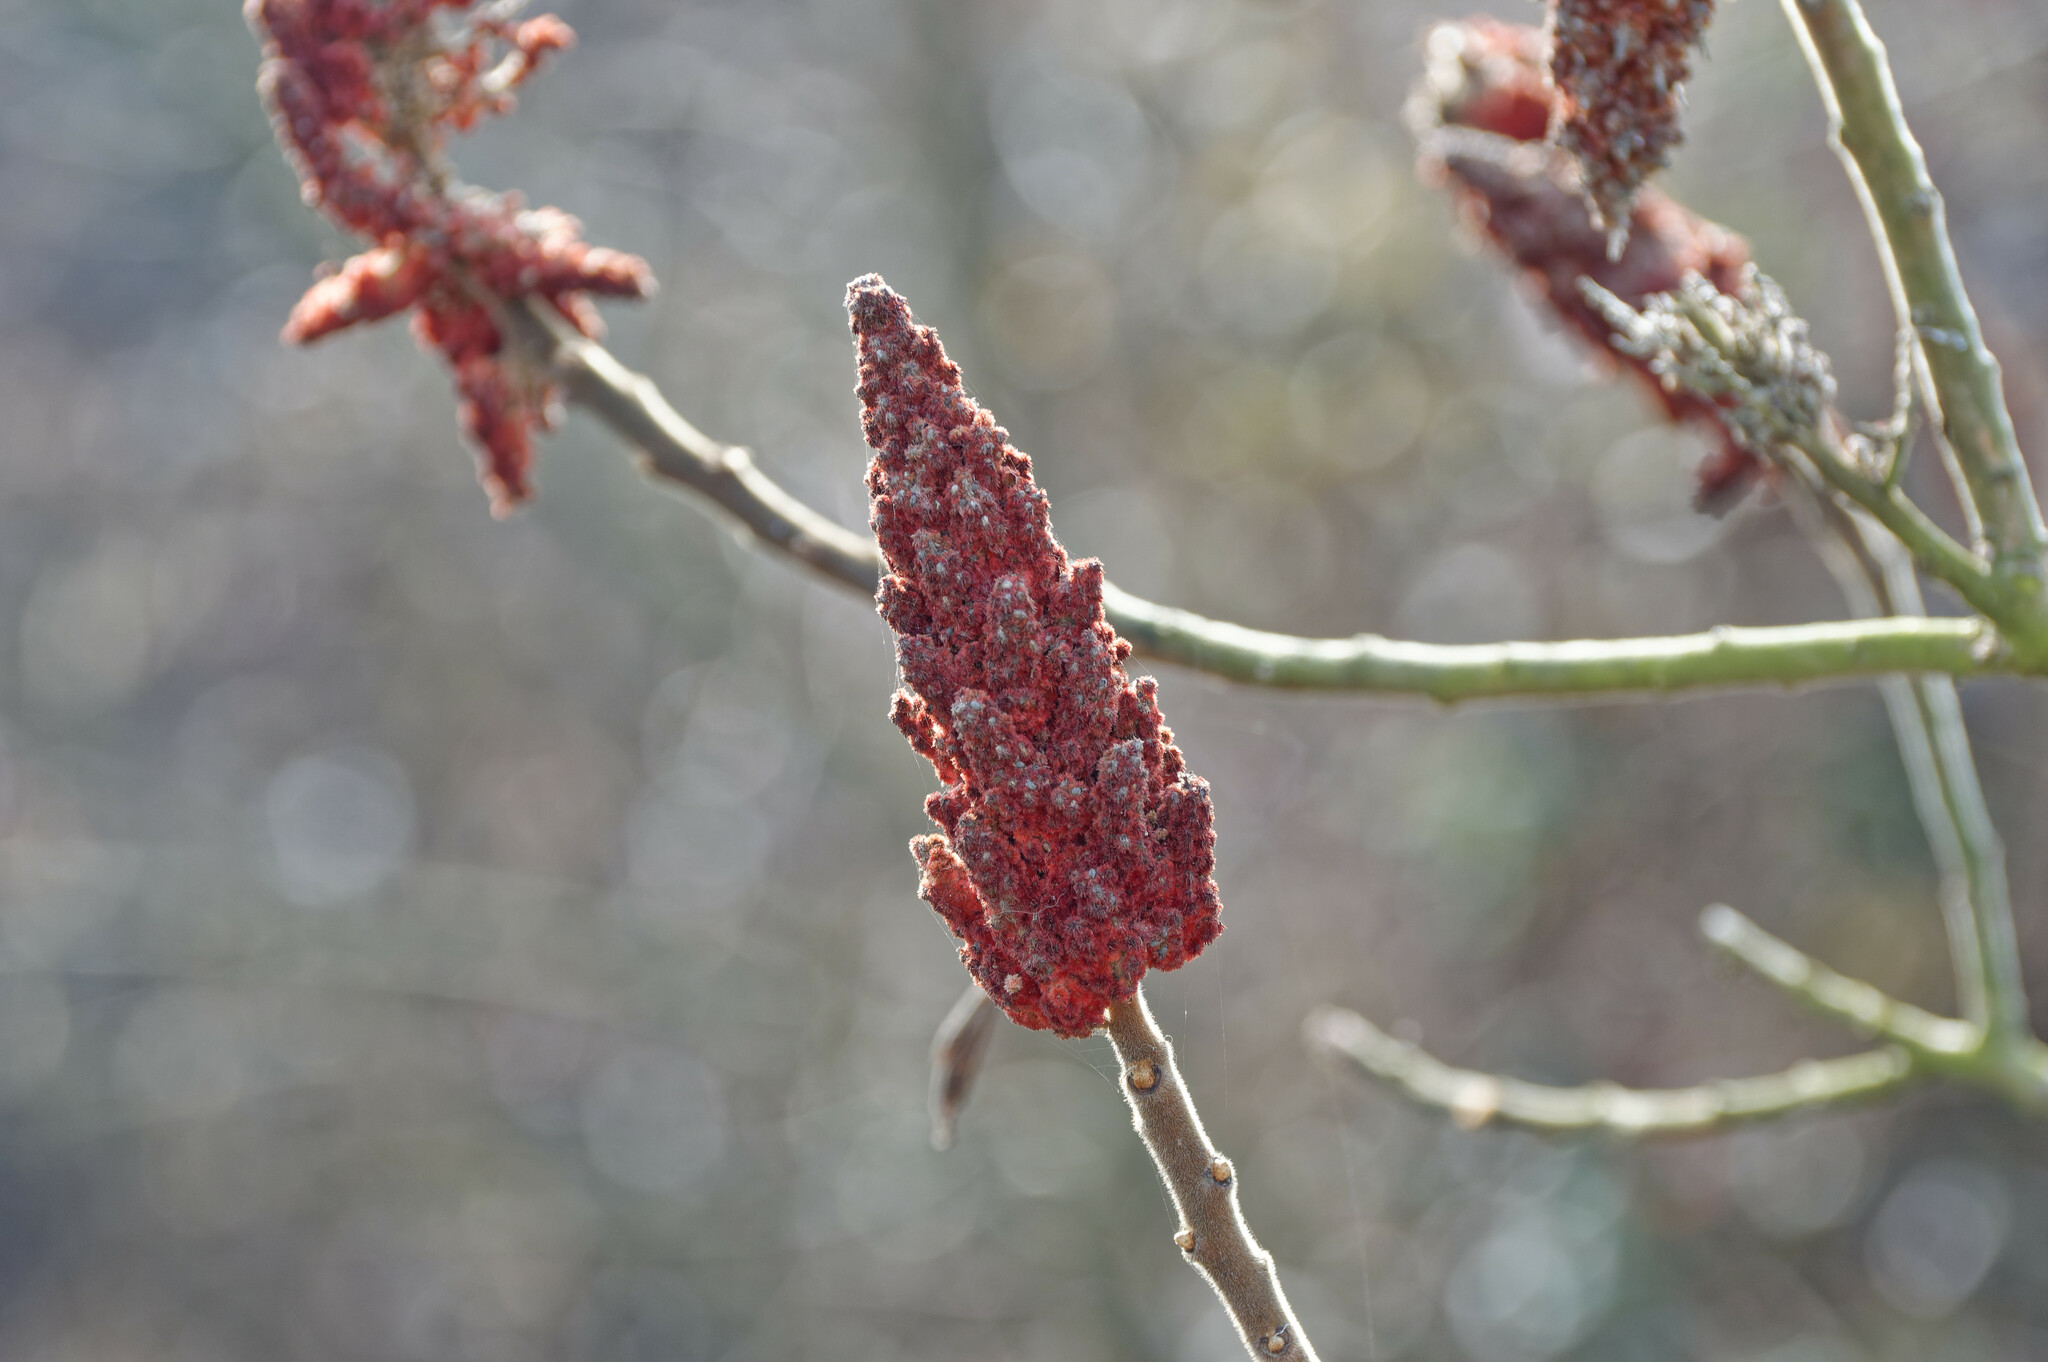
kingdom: Plantae
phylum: Tracheophyta
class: Magnoliopsida
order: Sapindales
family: Anacardiaceae
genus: Rhus
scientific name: Rhus typhina
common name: Staghorn sumac
